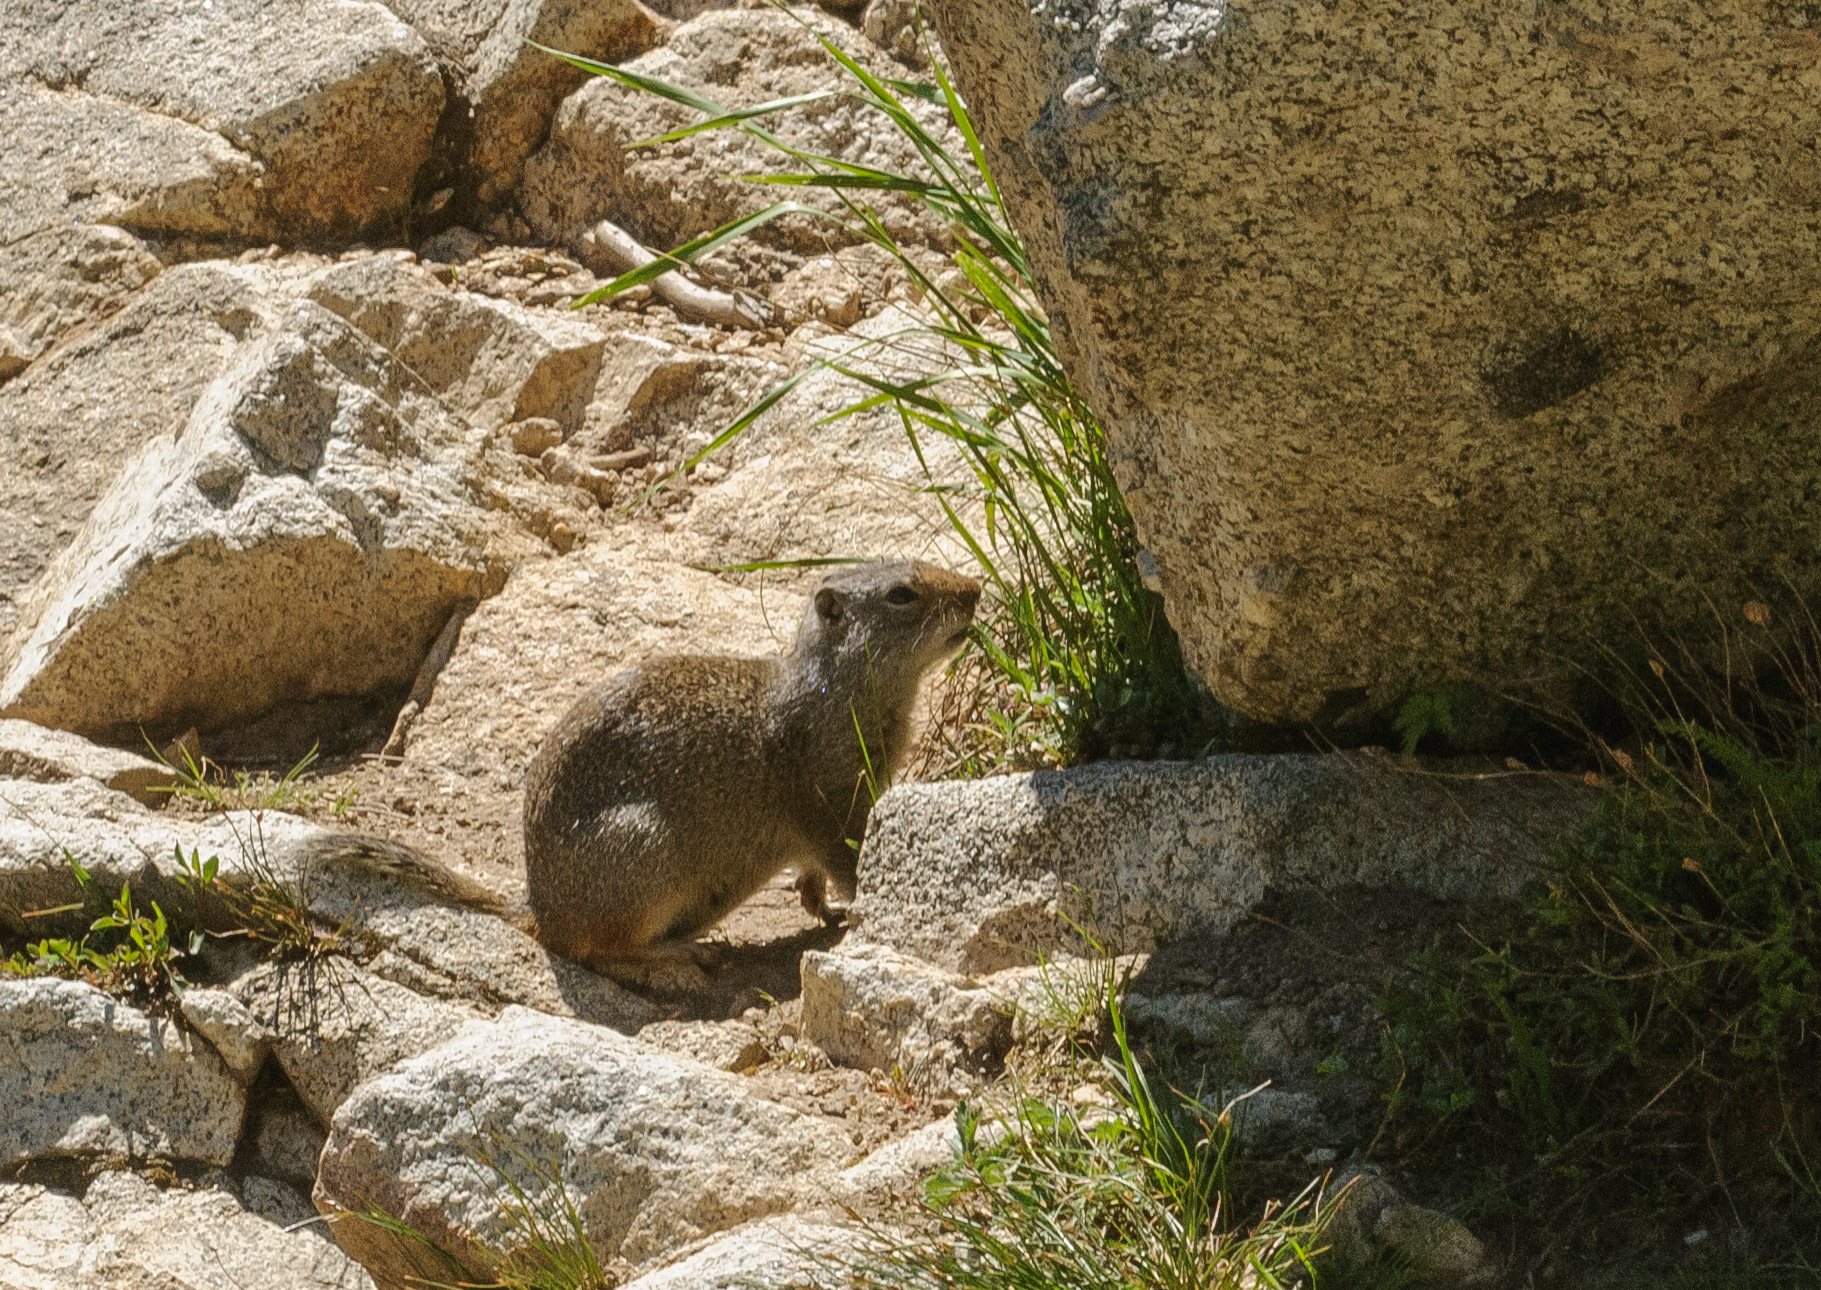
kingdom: Animalia
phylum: Chordata
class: Mammalia
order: Rodentia
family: Sciuridae
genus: Urocitellus
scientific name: Urocitellus armatus
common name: Uinta ground squirrel
